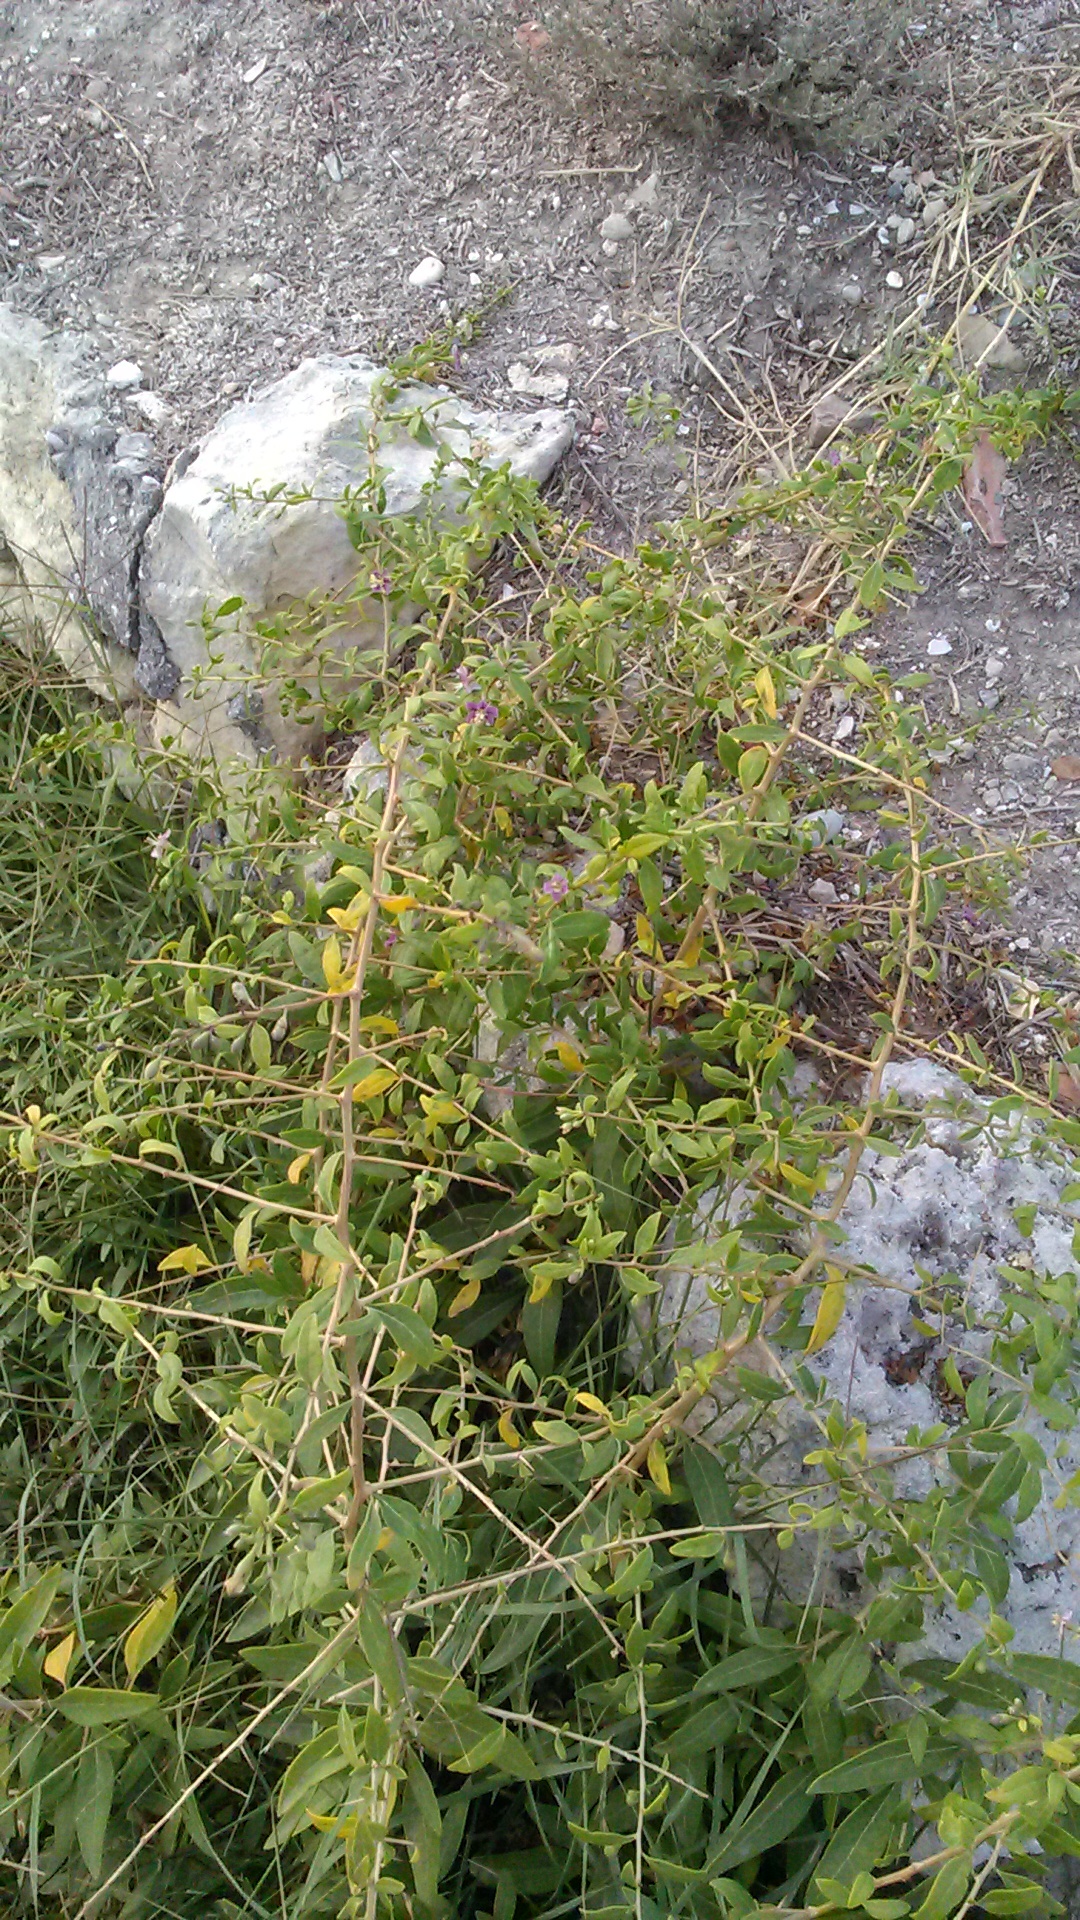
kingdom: Plantae
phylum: Tracheophyta
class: Magnoliopsida
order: Solanales
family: Solanaceae
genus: Lycium
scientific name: Lycium barbarum
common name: Duke of argyll's teaplant
